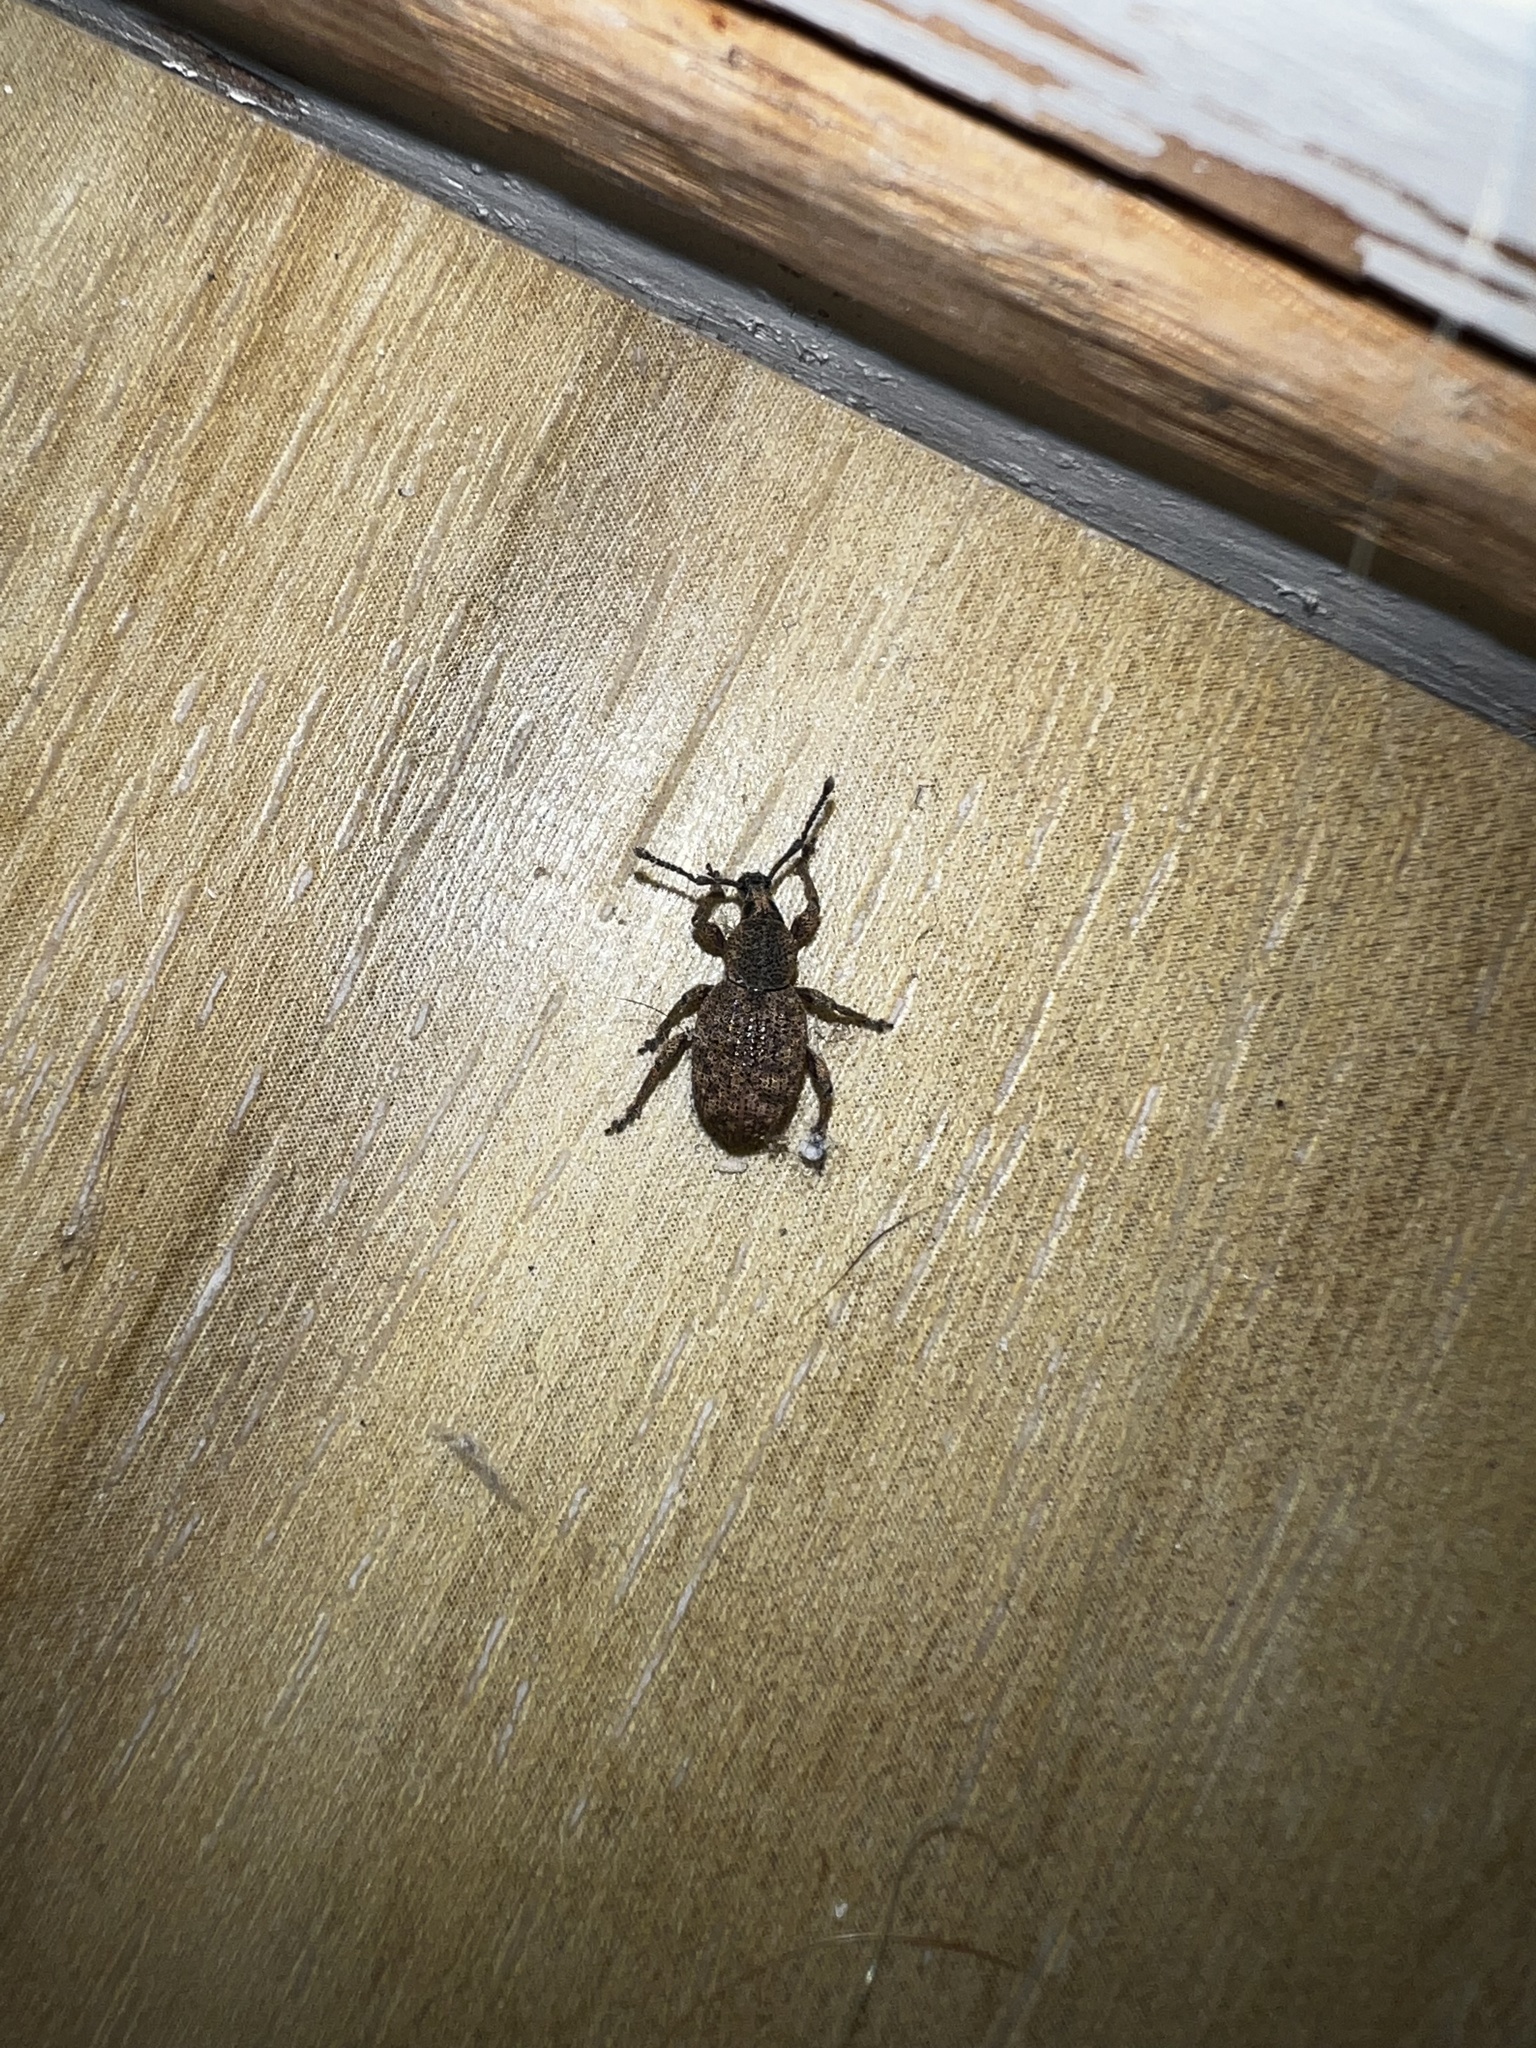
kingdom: Animalia
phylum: Arthropoda
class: Insecta
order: Coleoptera
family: Curculionidae
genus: Otiorhynchus
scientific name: Otiorhynchus singularis
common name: Clay-coloured weevil
